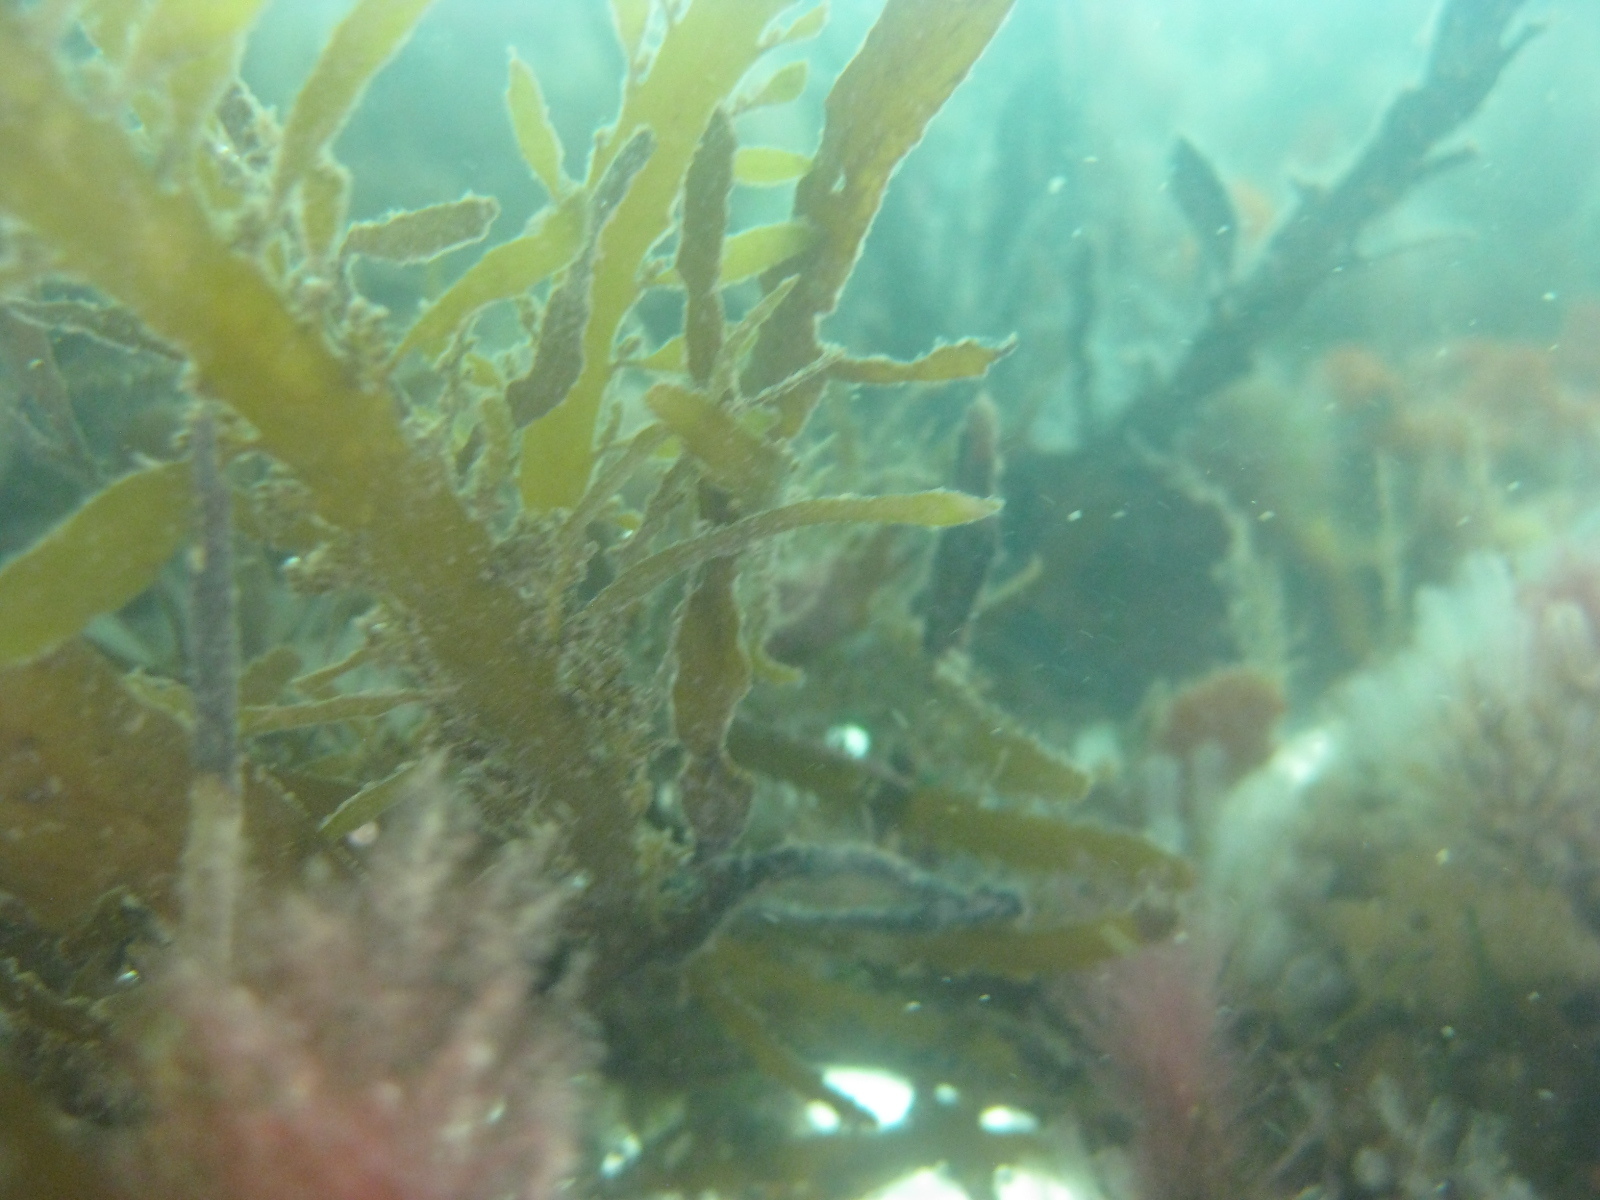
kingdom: Chromista
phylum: Ochrophyta
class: Phaeophyceae
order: Fucales
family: Sargassaceae
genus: Carpophyllum
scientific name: Carpophyllum maschalocarpum
